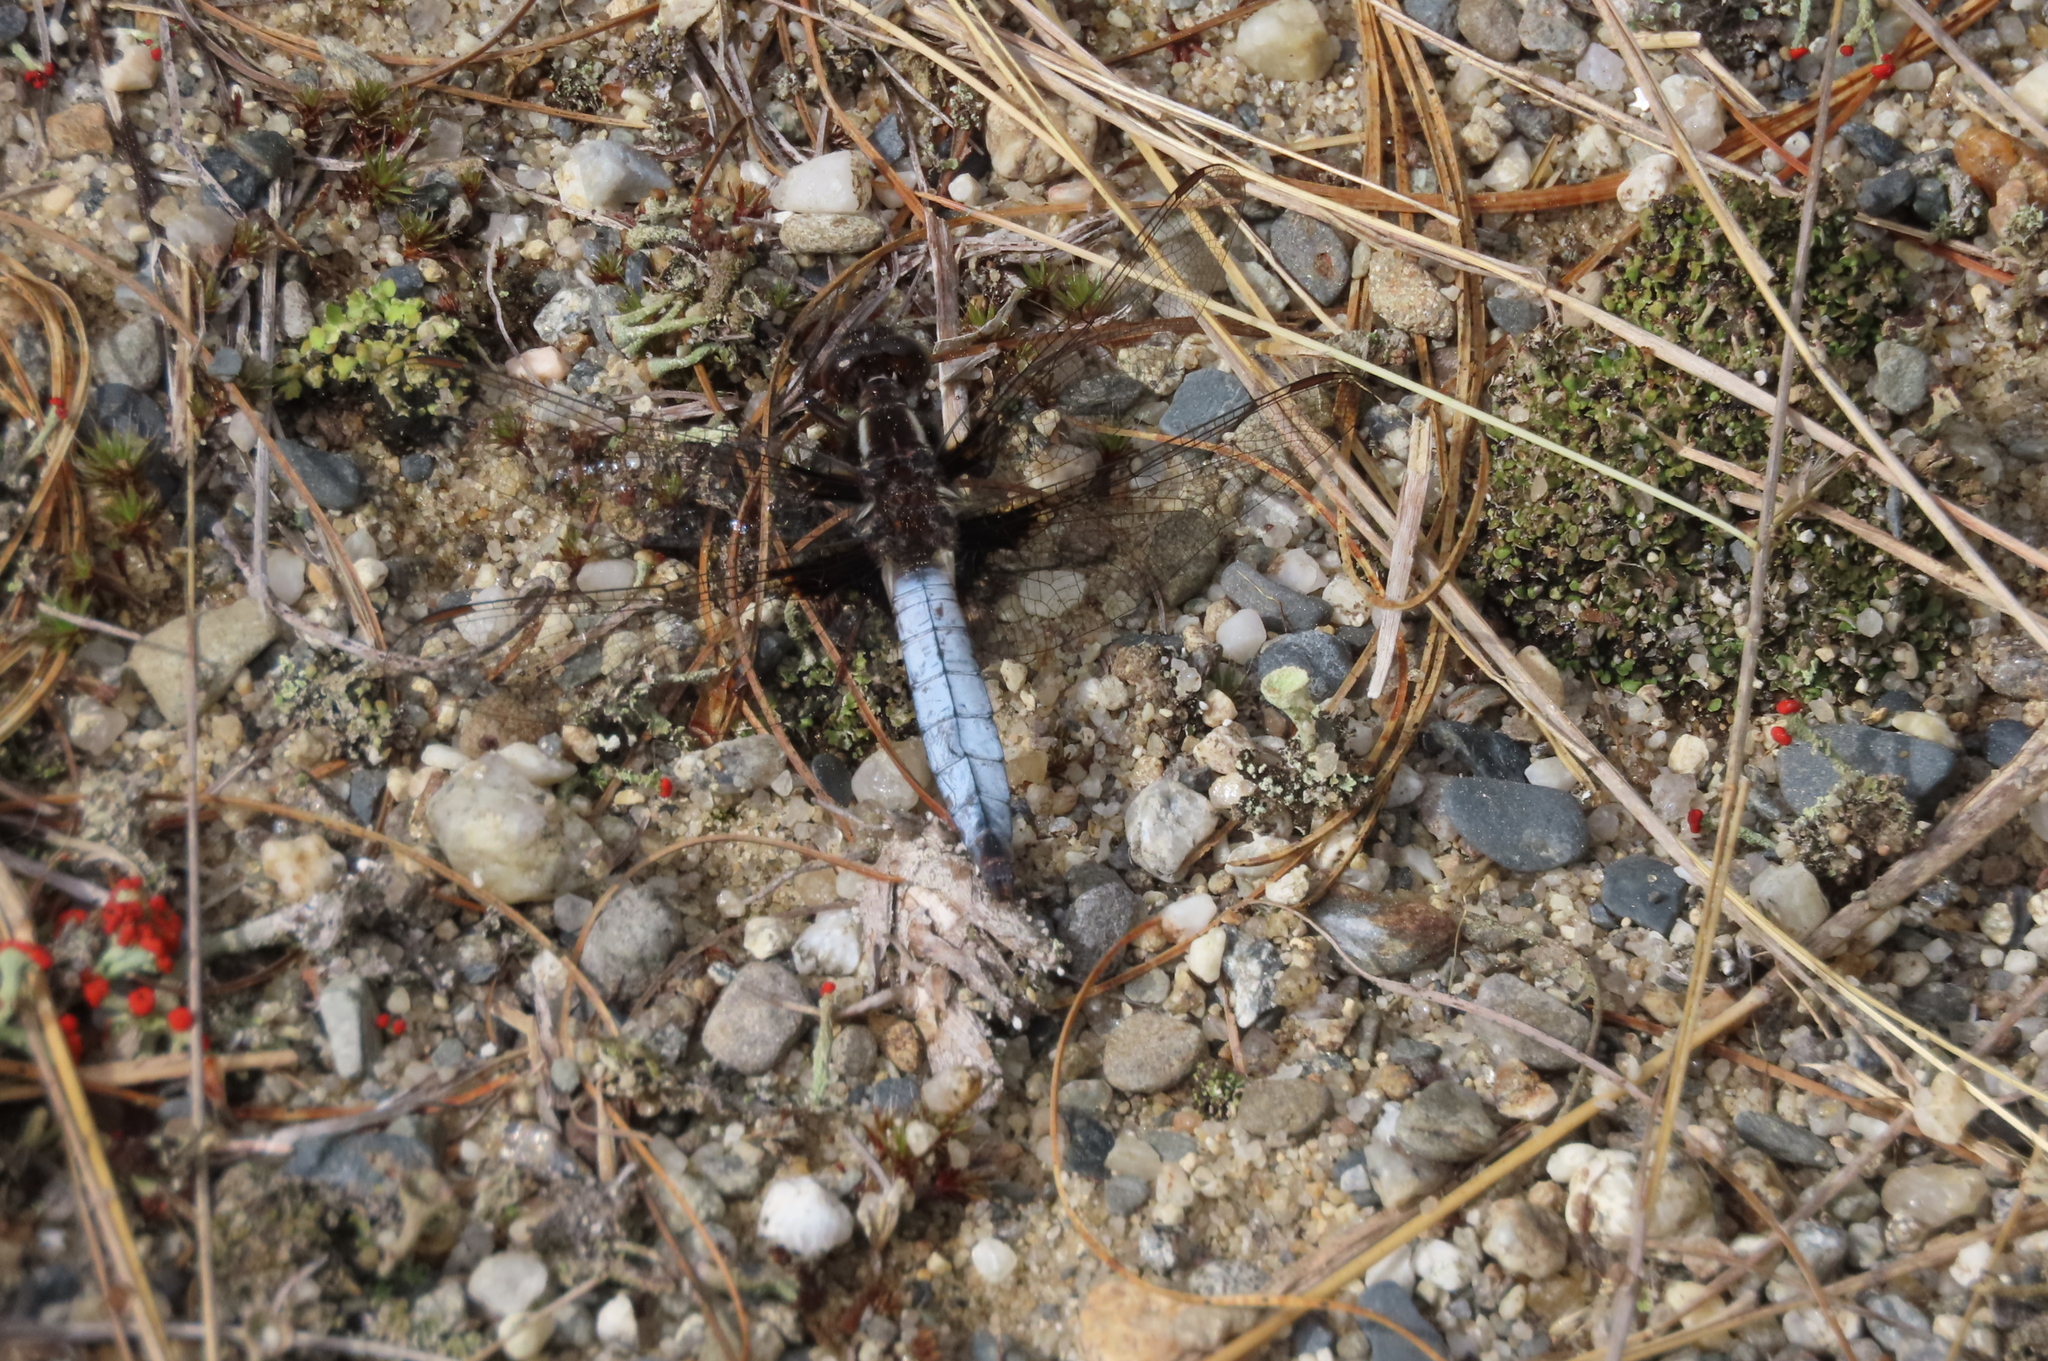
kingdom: Animalia
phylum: Arthropoda
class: Insecta
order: Odonata
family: Libellulidae
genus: Ladona
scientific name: Ladona exusta
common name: Libellule embrasée
